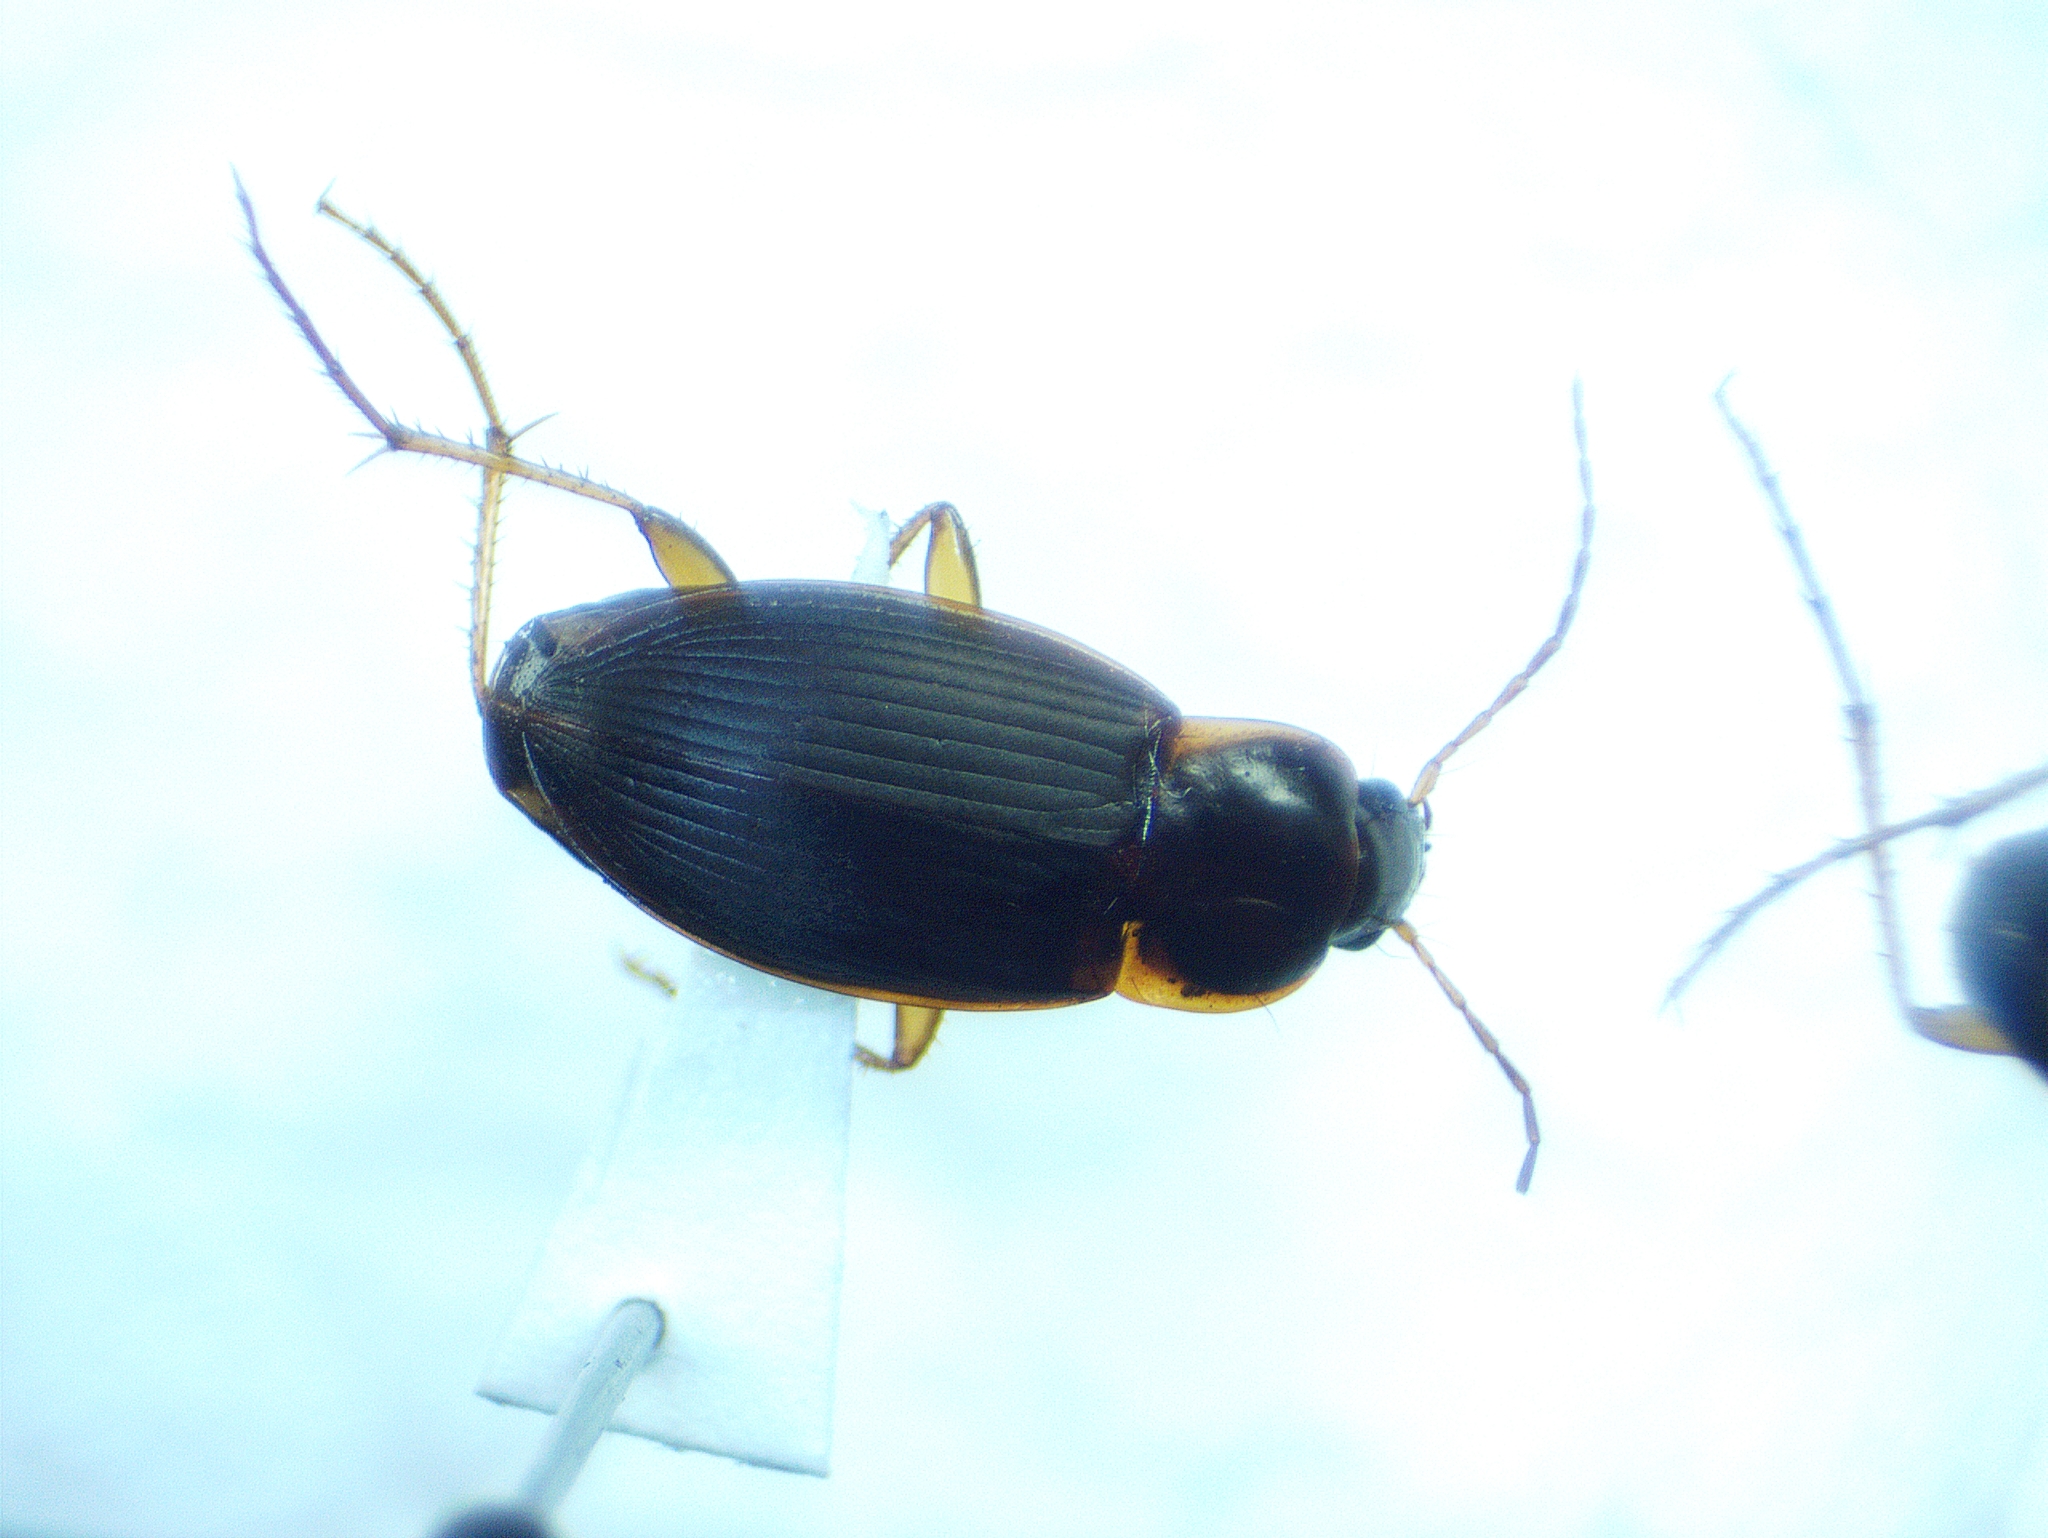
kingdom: Animalia
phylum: Arthropoda
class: Insecta
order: Coleoptera
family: Carabidae
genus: Calathus
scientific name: Calathus opaculus
